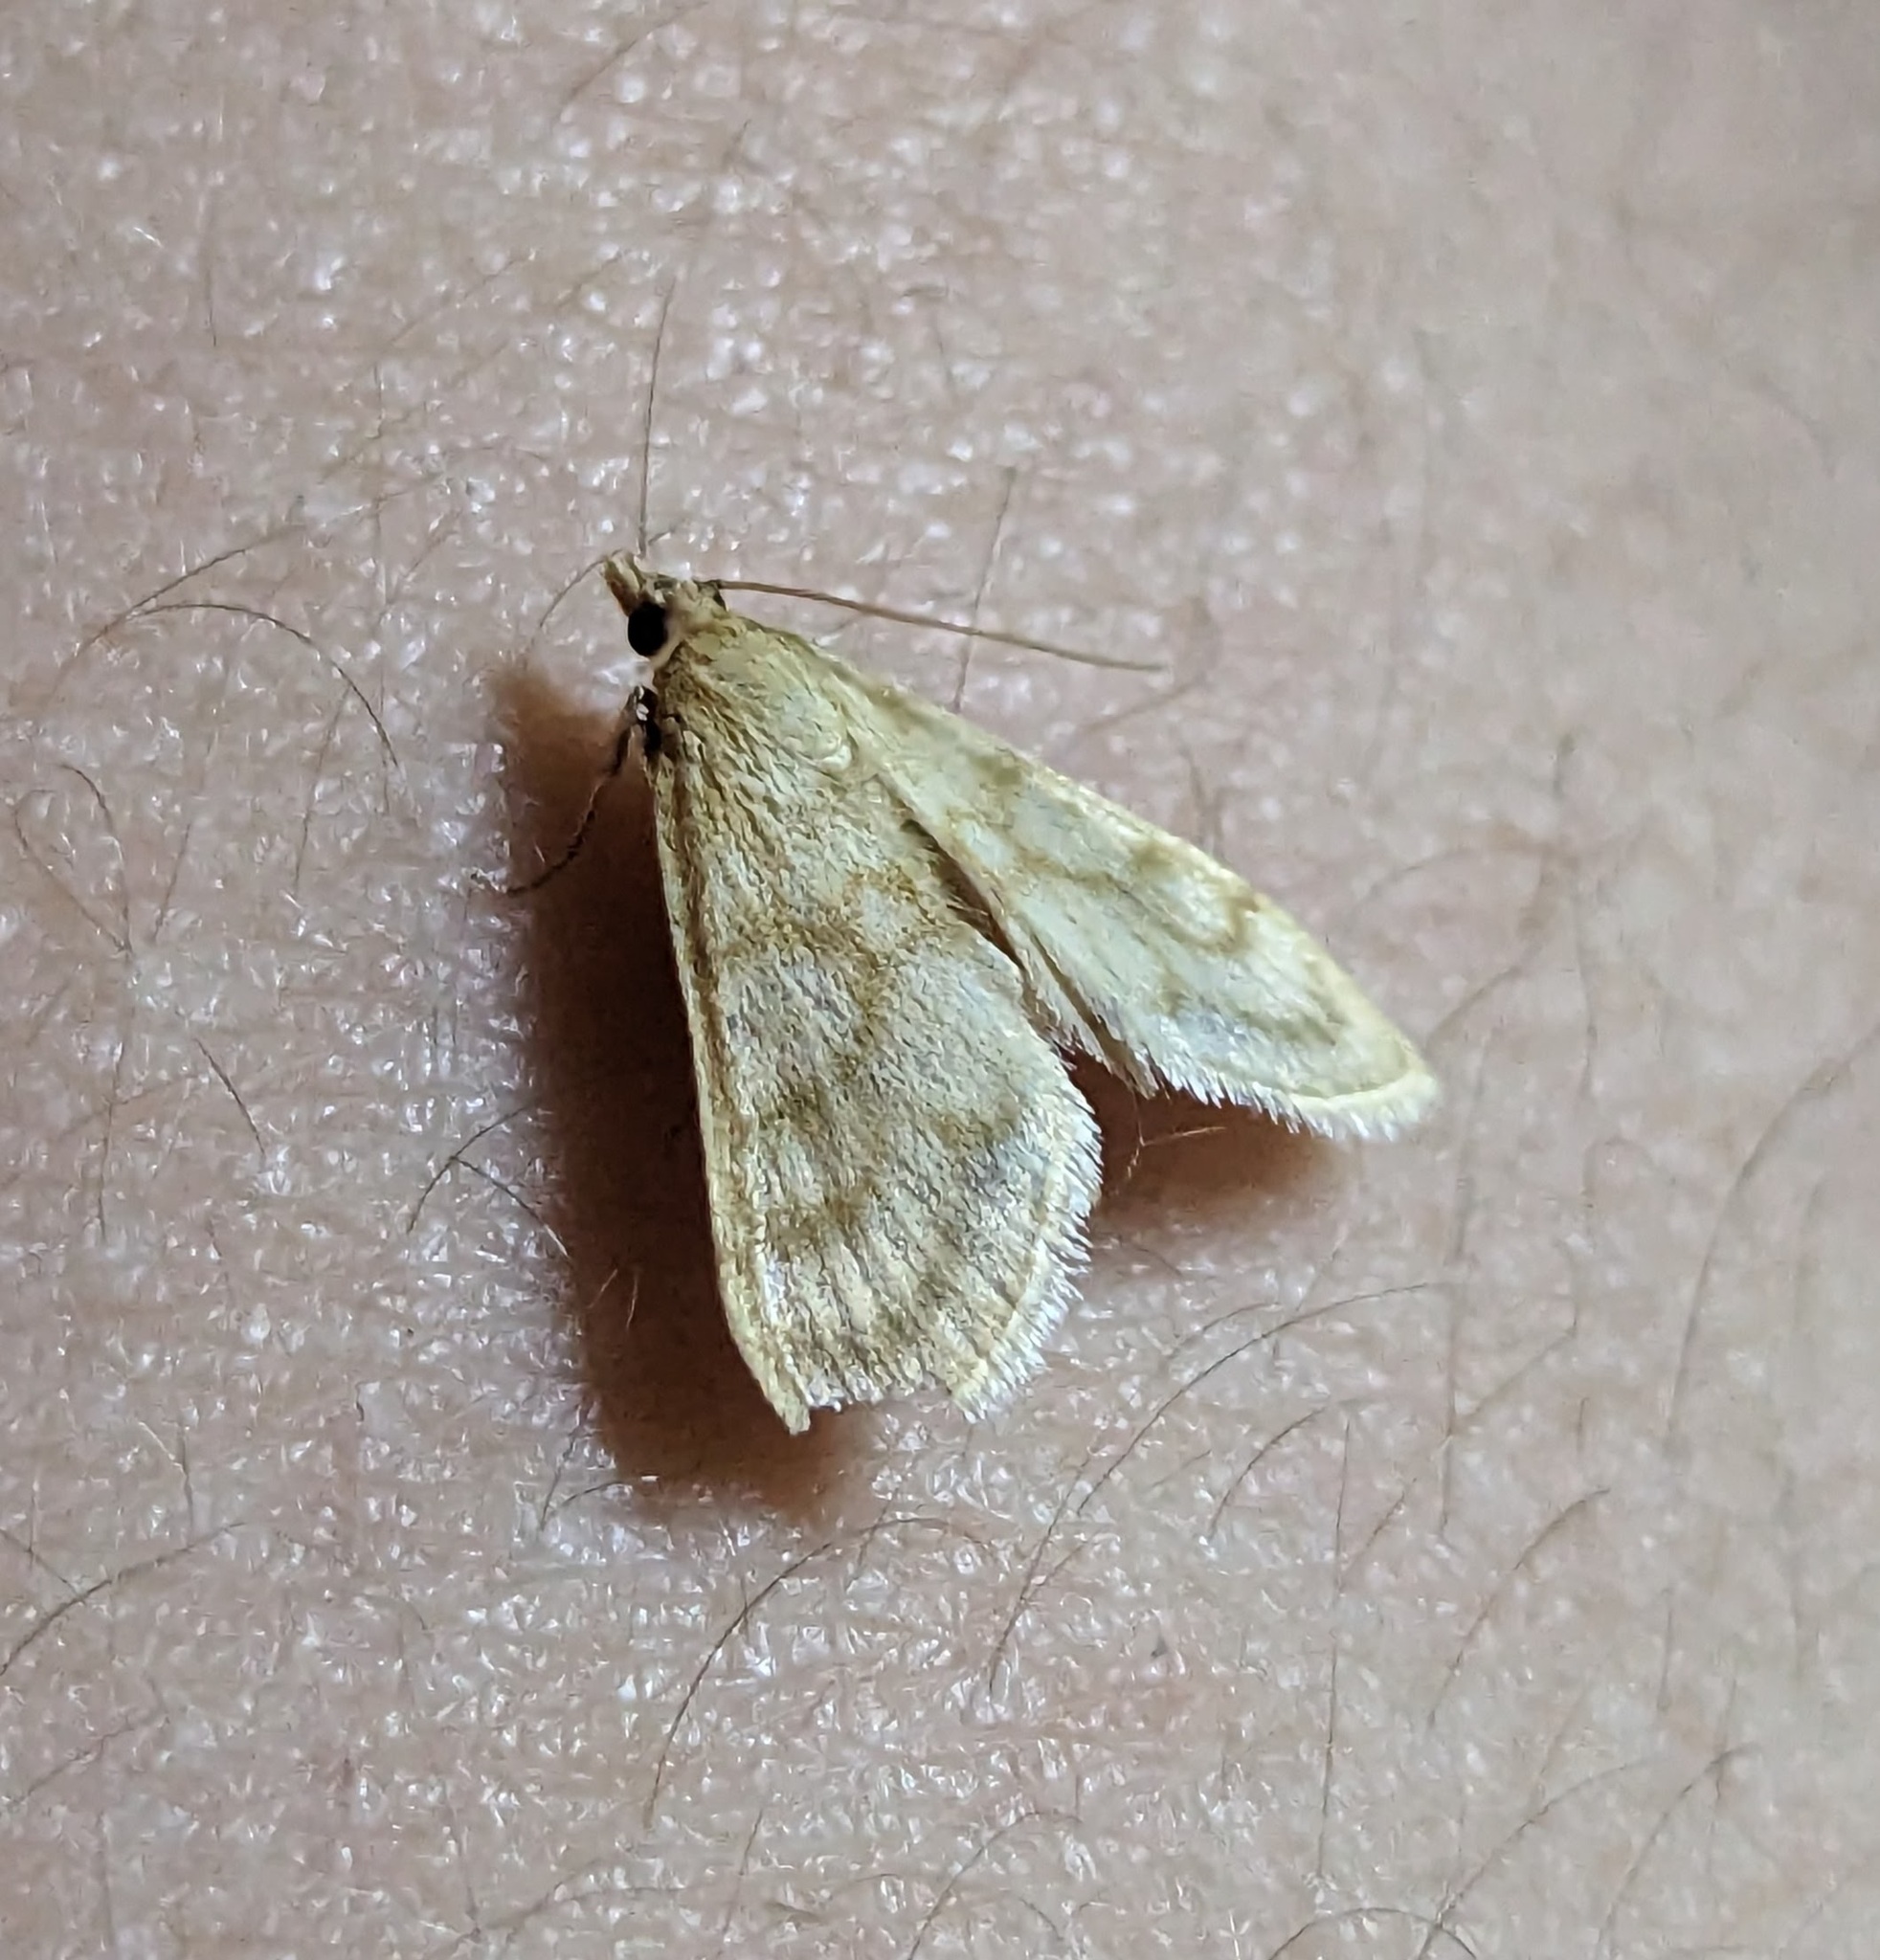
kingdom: Animalia
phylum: Arthropoda
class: Insecta
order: Lepidoptera
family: Crambidae
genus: Paracorsia
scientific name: Paracorsia repandalis
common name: Mullein moth
